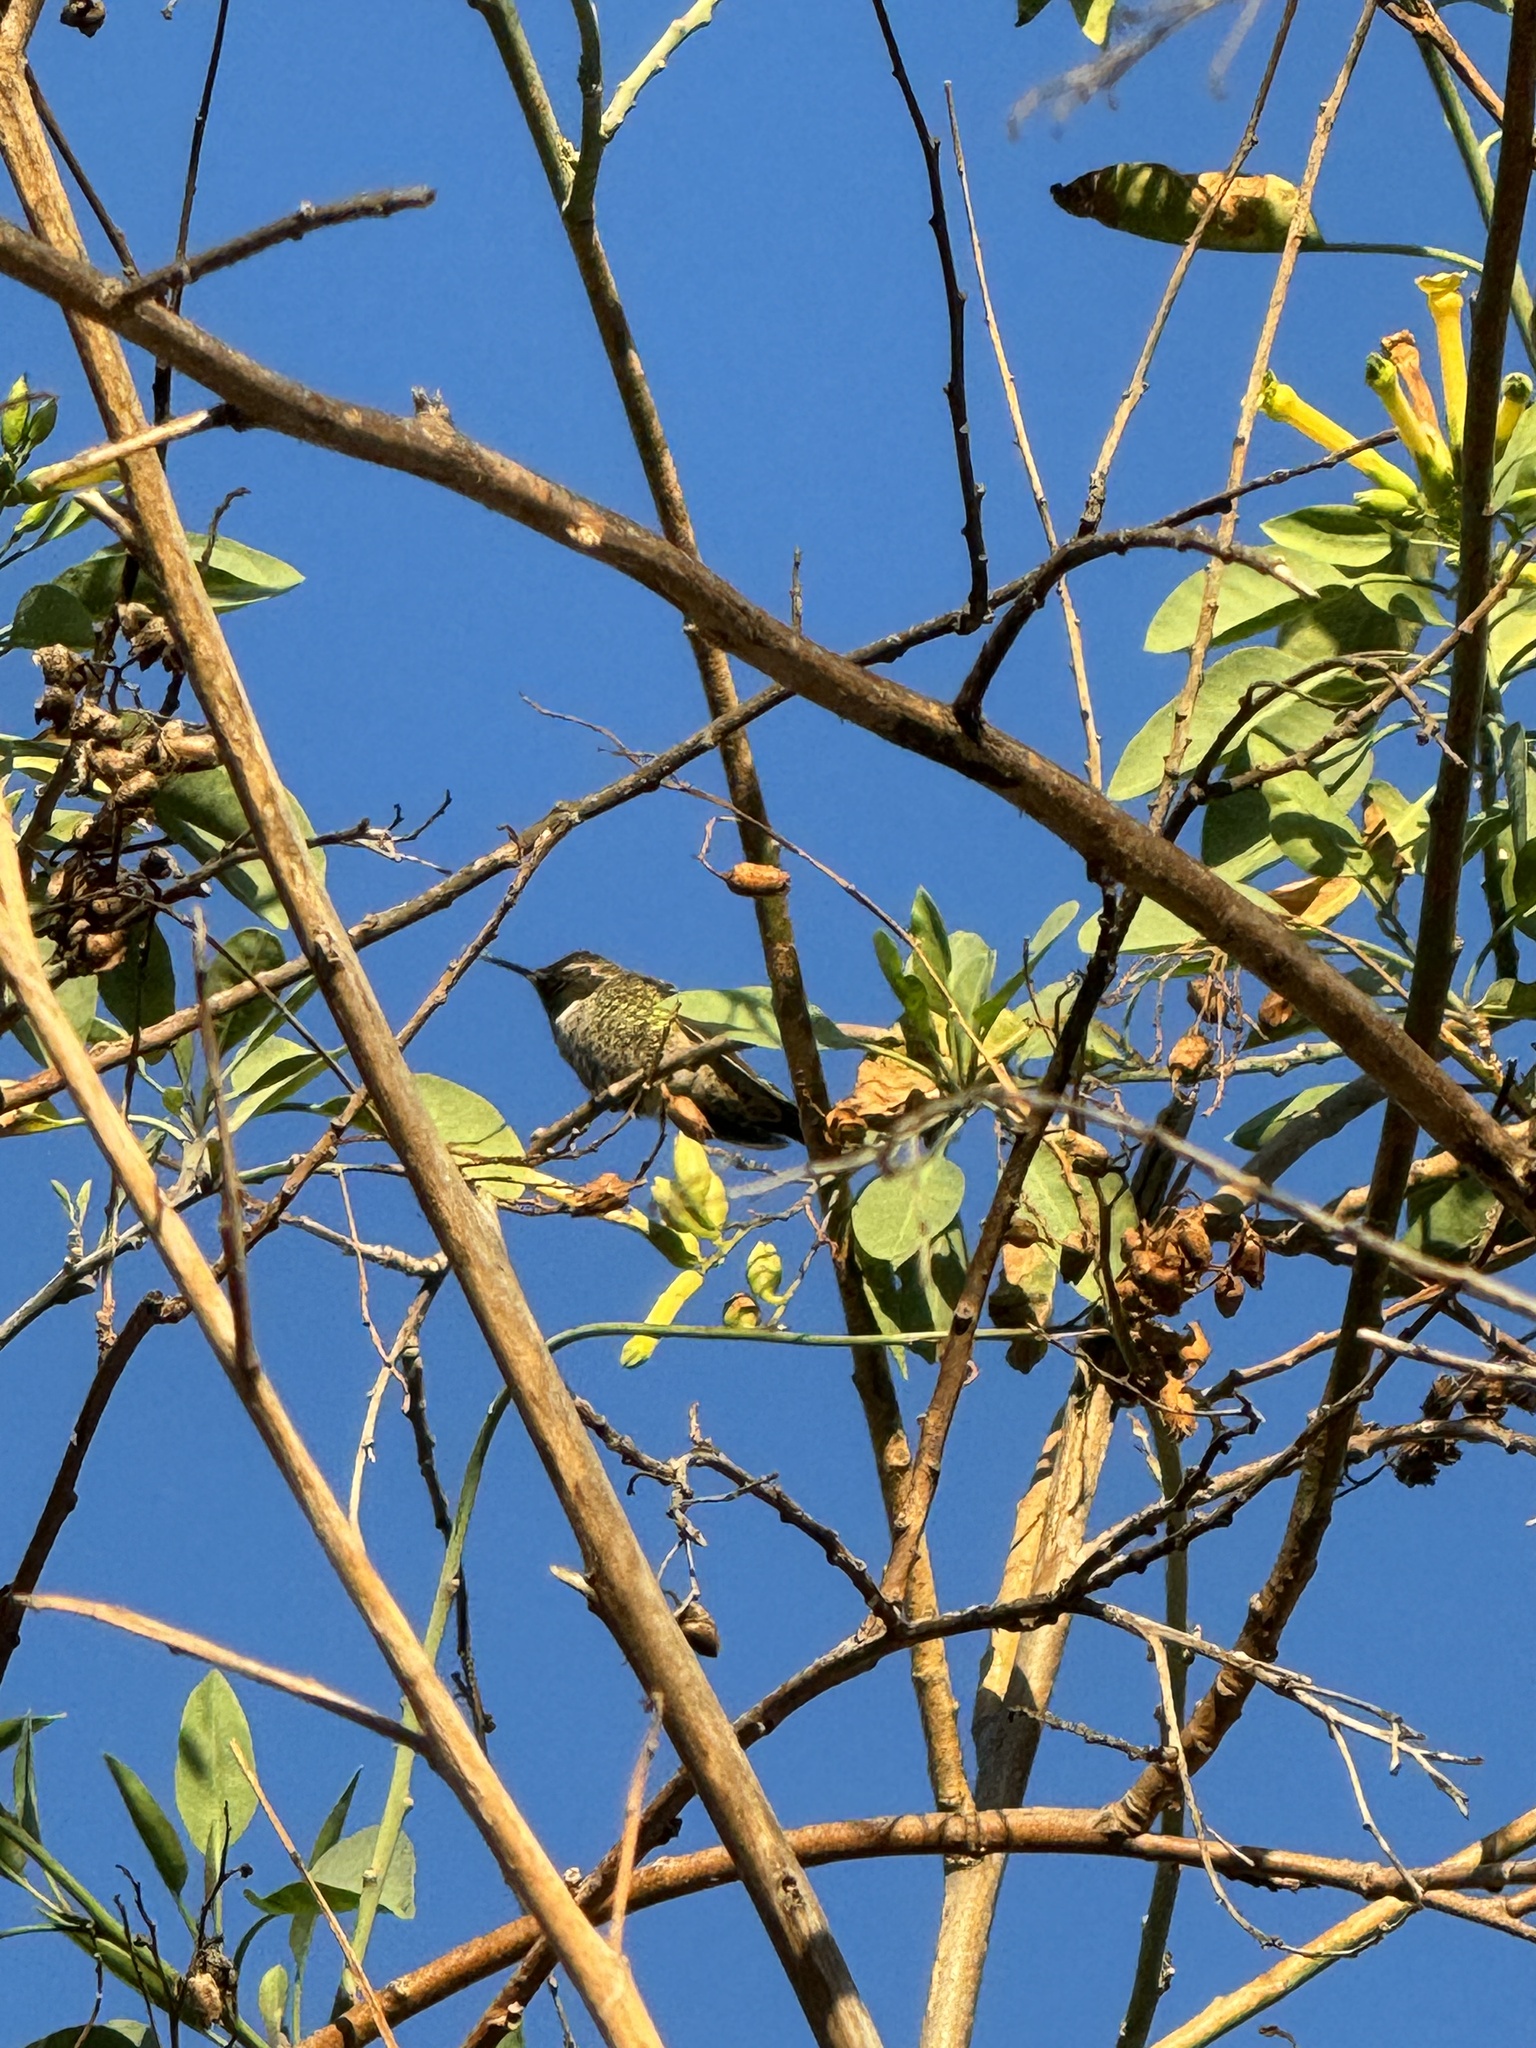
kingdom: Animalia
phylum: Chordata
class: Aves
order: Apodiformes
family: Trochilidae
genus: Calypte
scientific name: Calypte anna
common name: Anna's hummingbird
